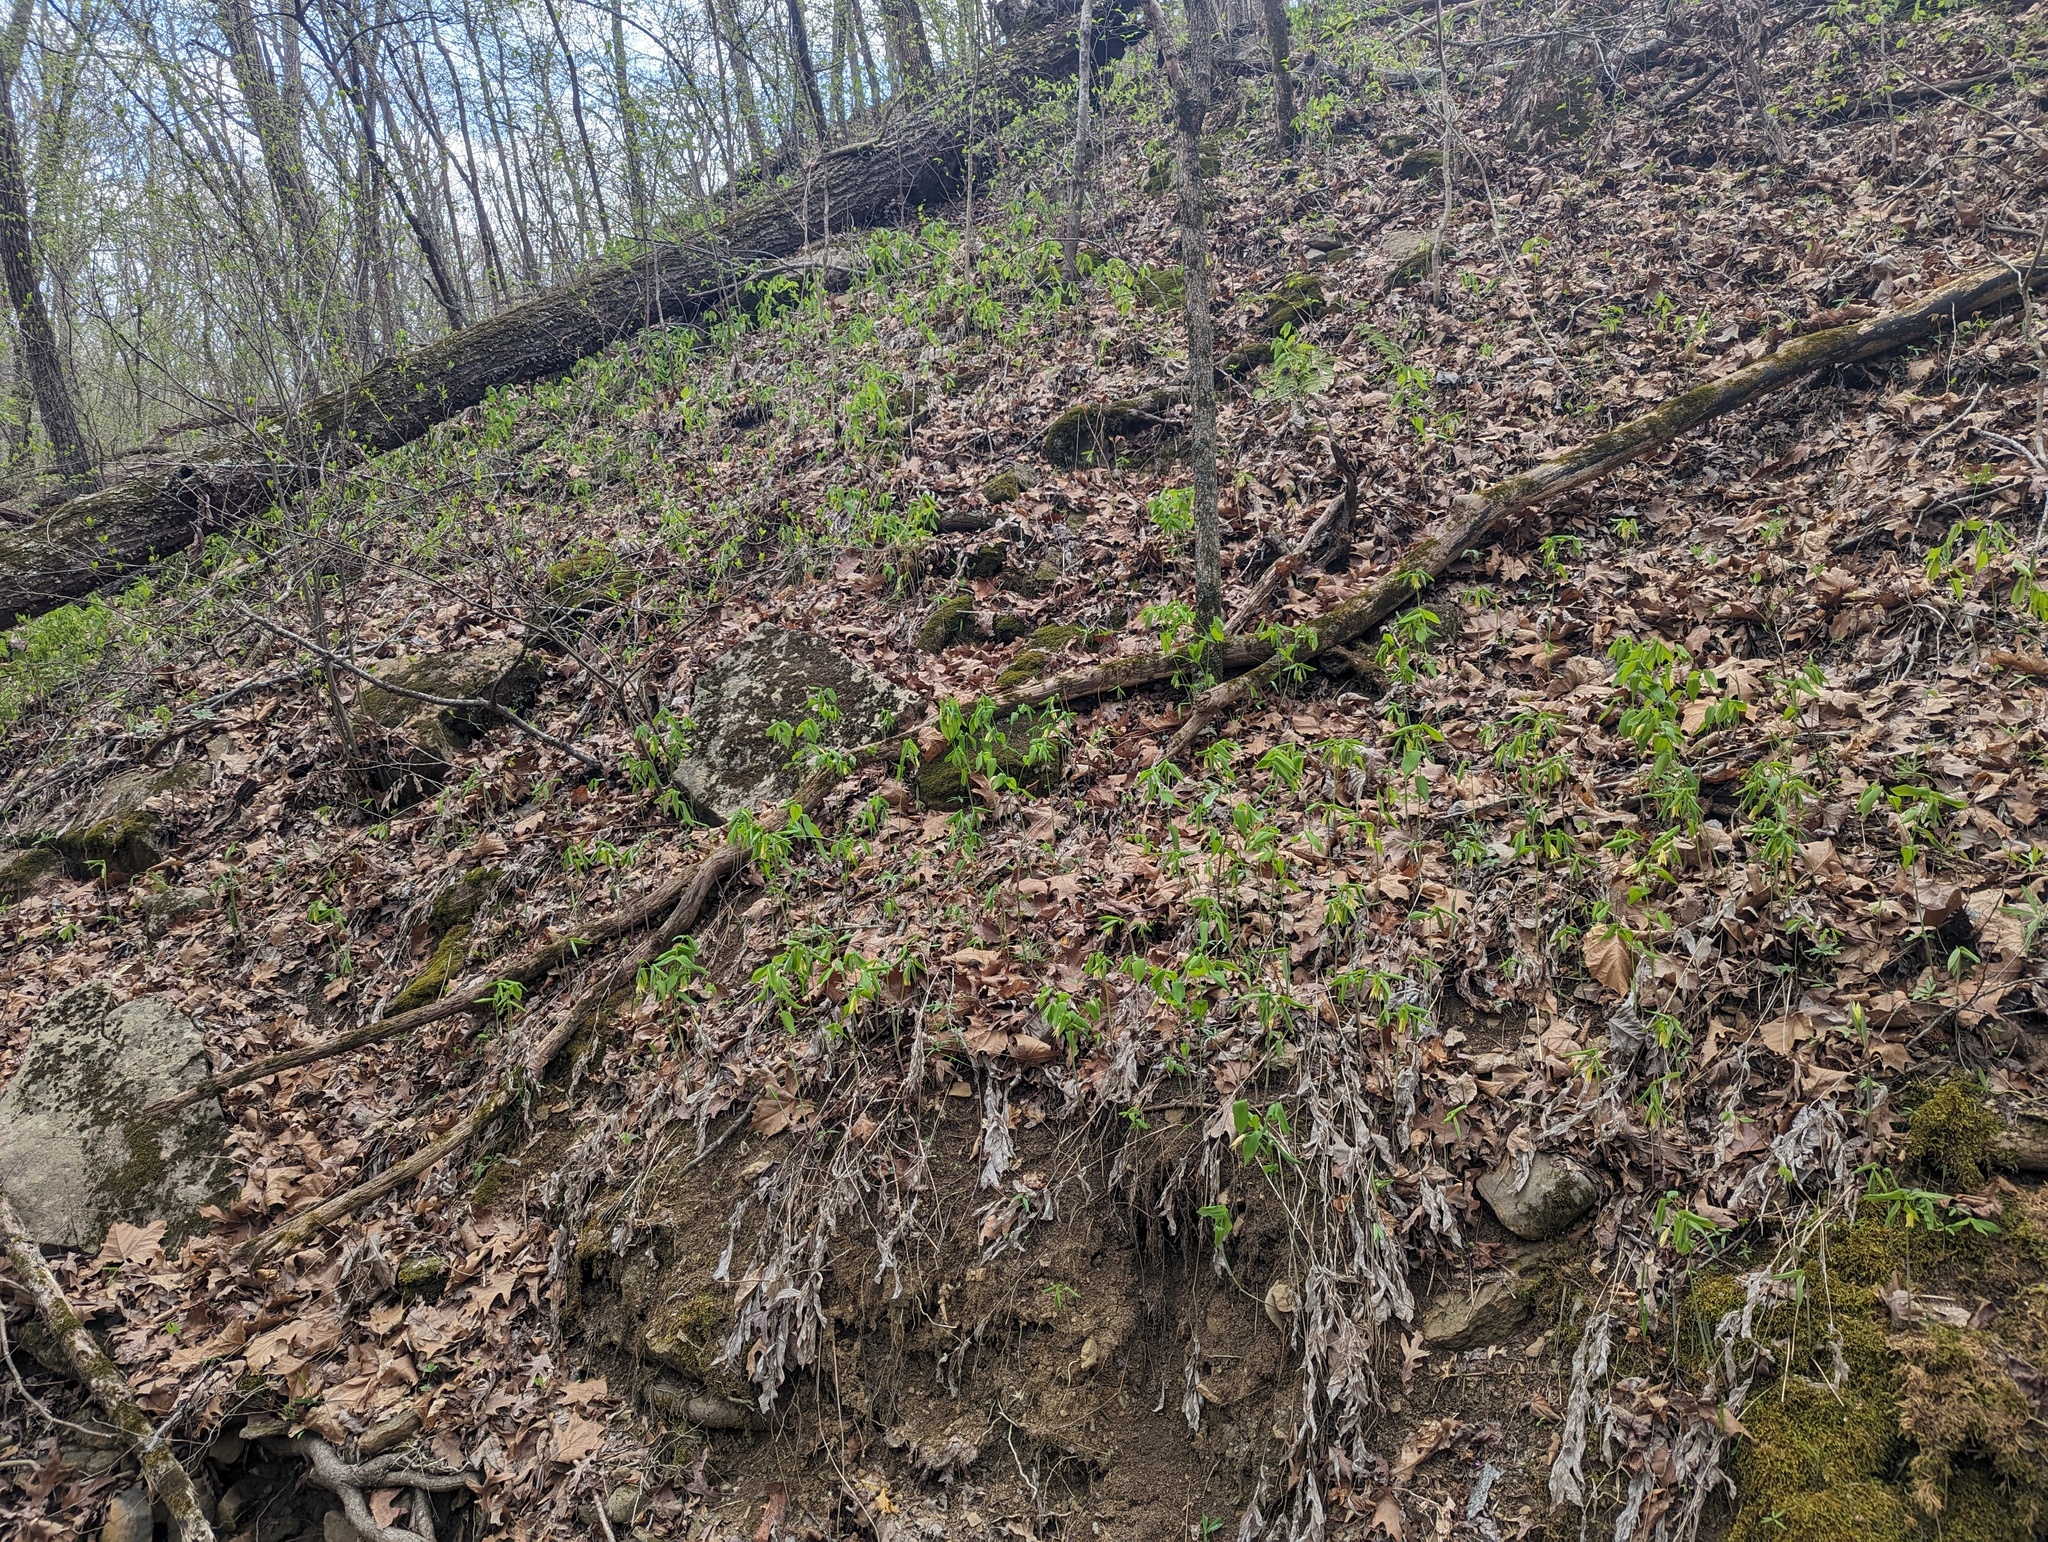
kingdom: Plantae
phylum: Tracheophyta
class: Liliopsida
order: Liliales
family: Colchicaceae
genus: Uvularia
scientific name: Uvularia grandiflora
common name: Bellwort
